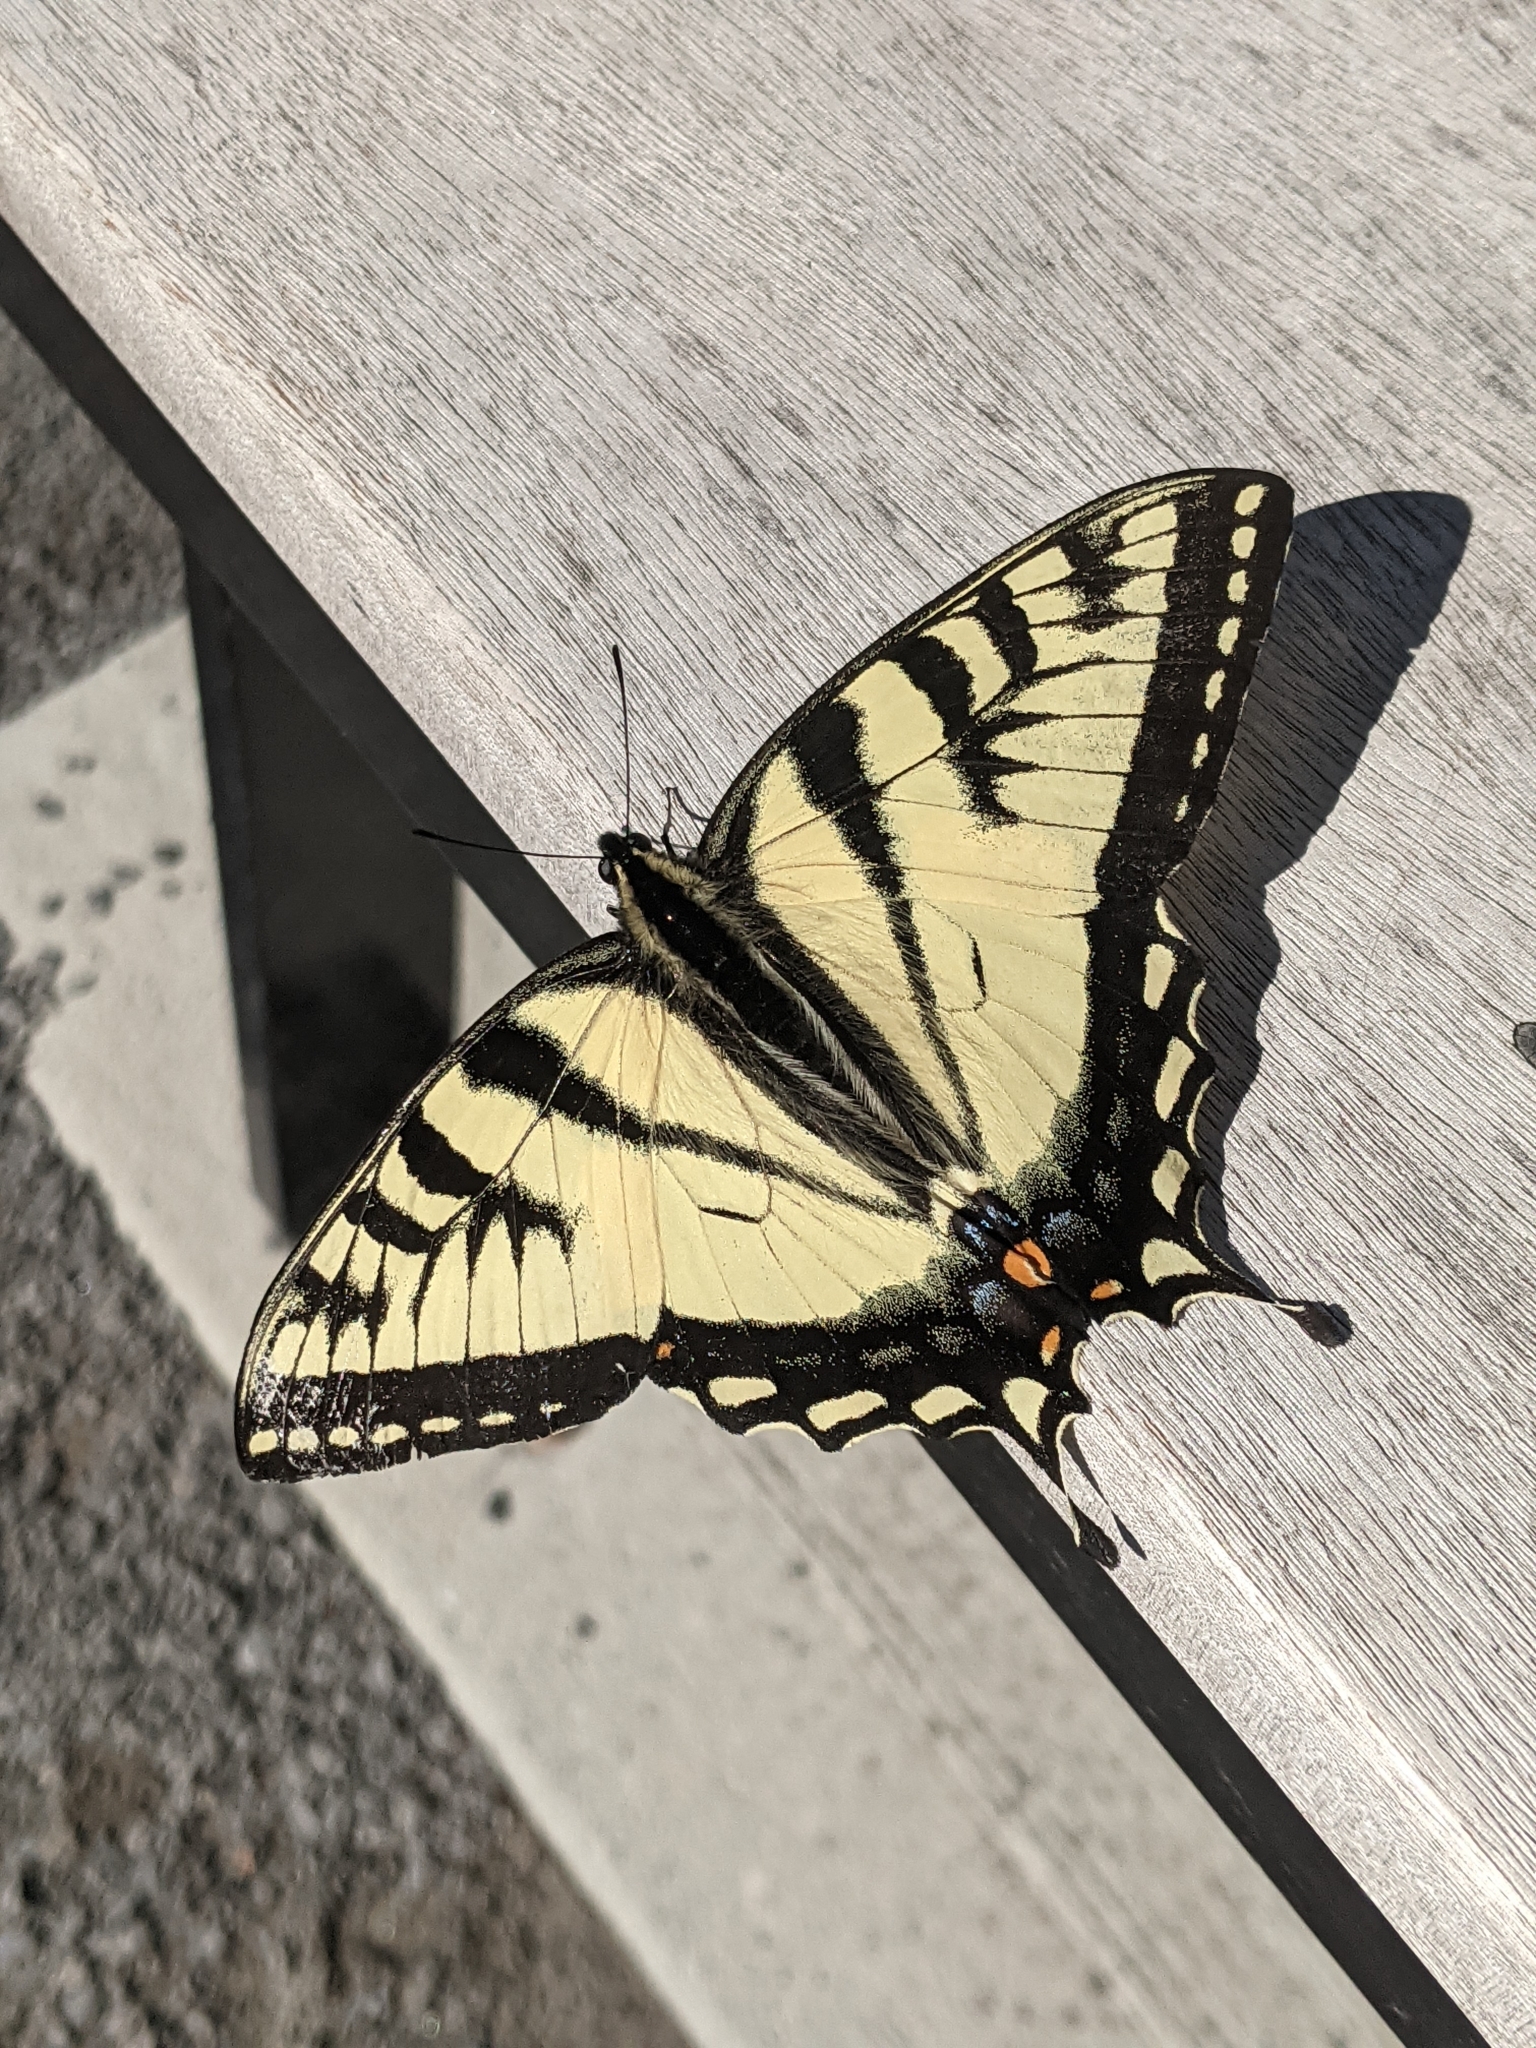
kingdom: Animalia
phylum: Arthropoda
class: Insecta
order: Lepidoptera
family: Papilionidae
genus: Papilio
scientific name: Papilio canadensis
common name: Canadian tiger swallowtail
